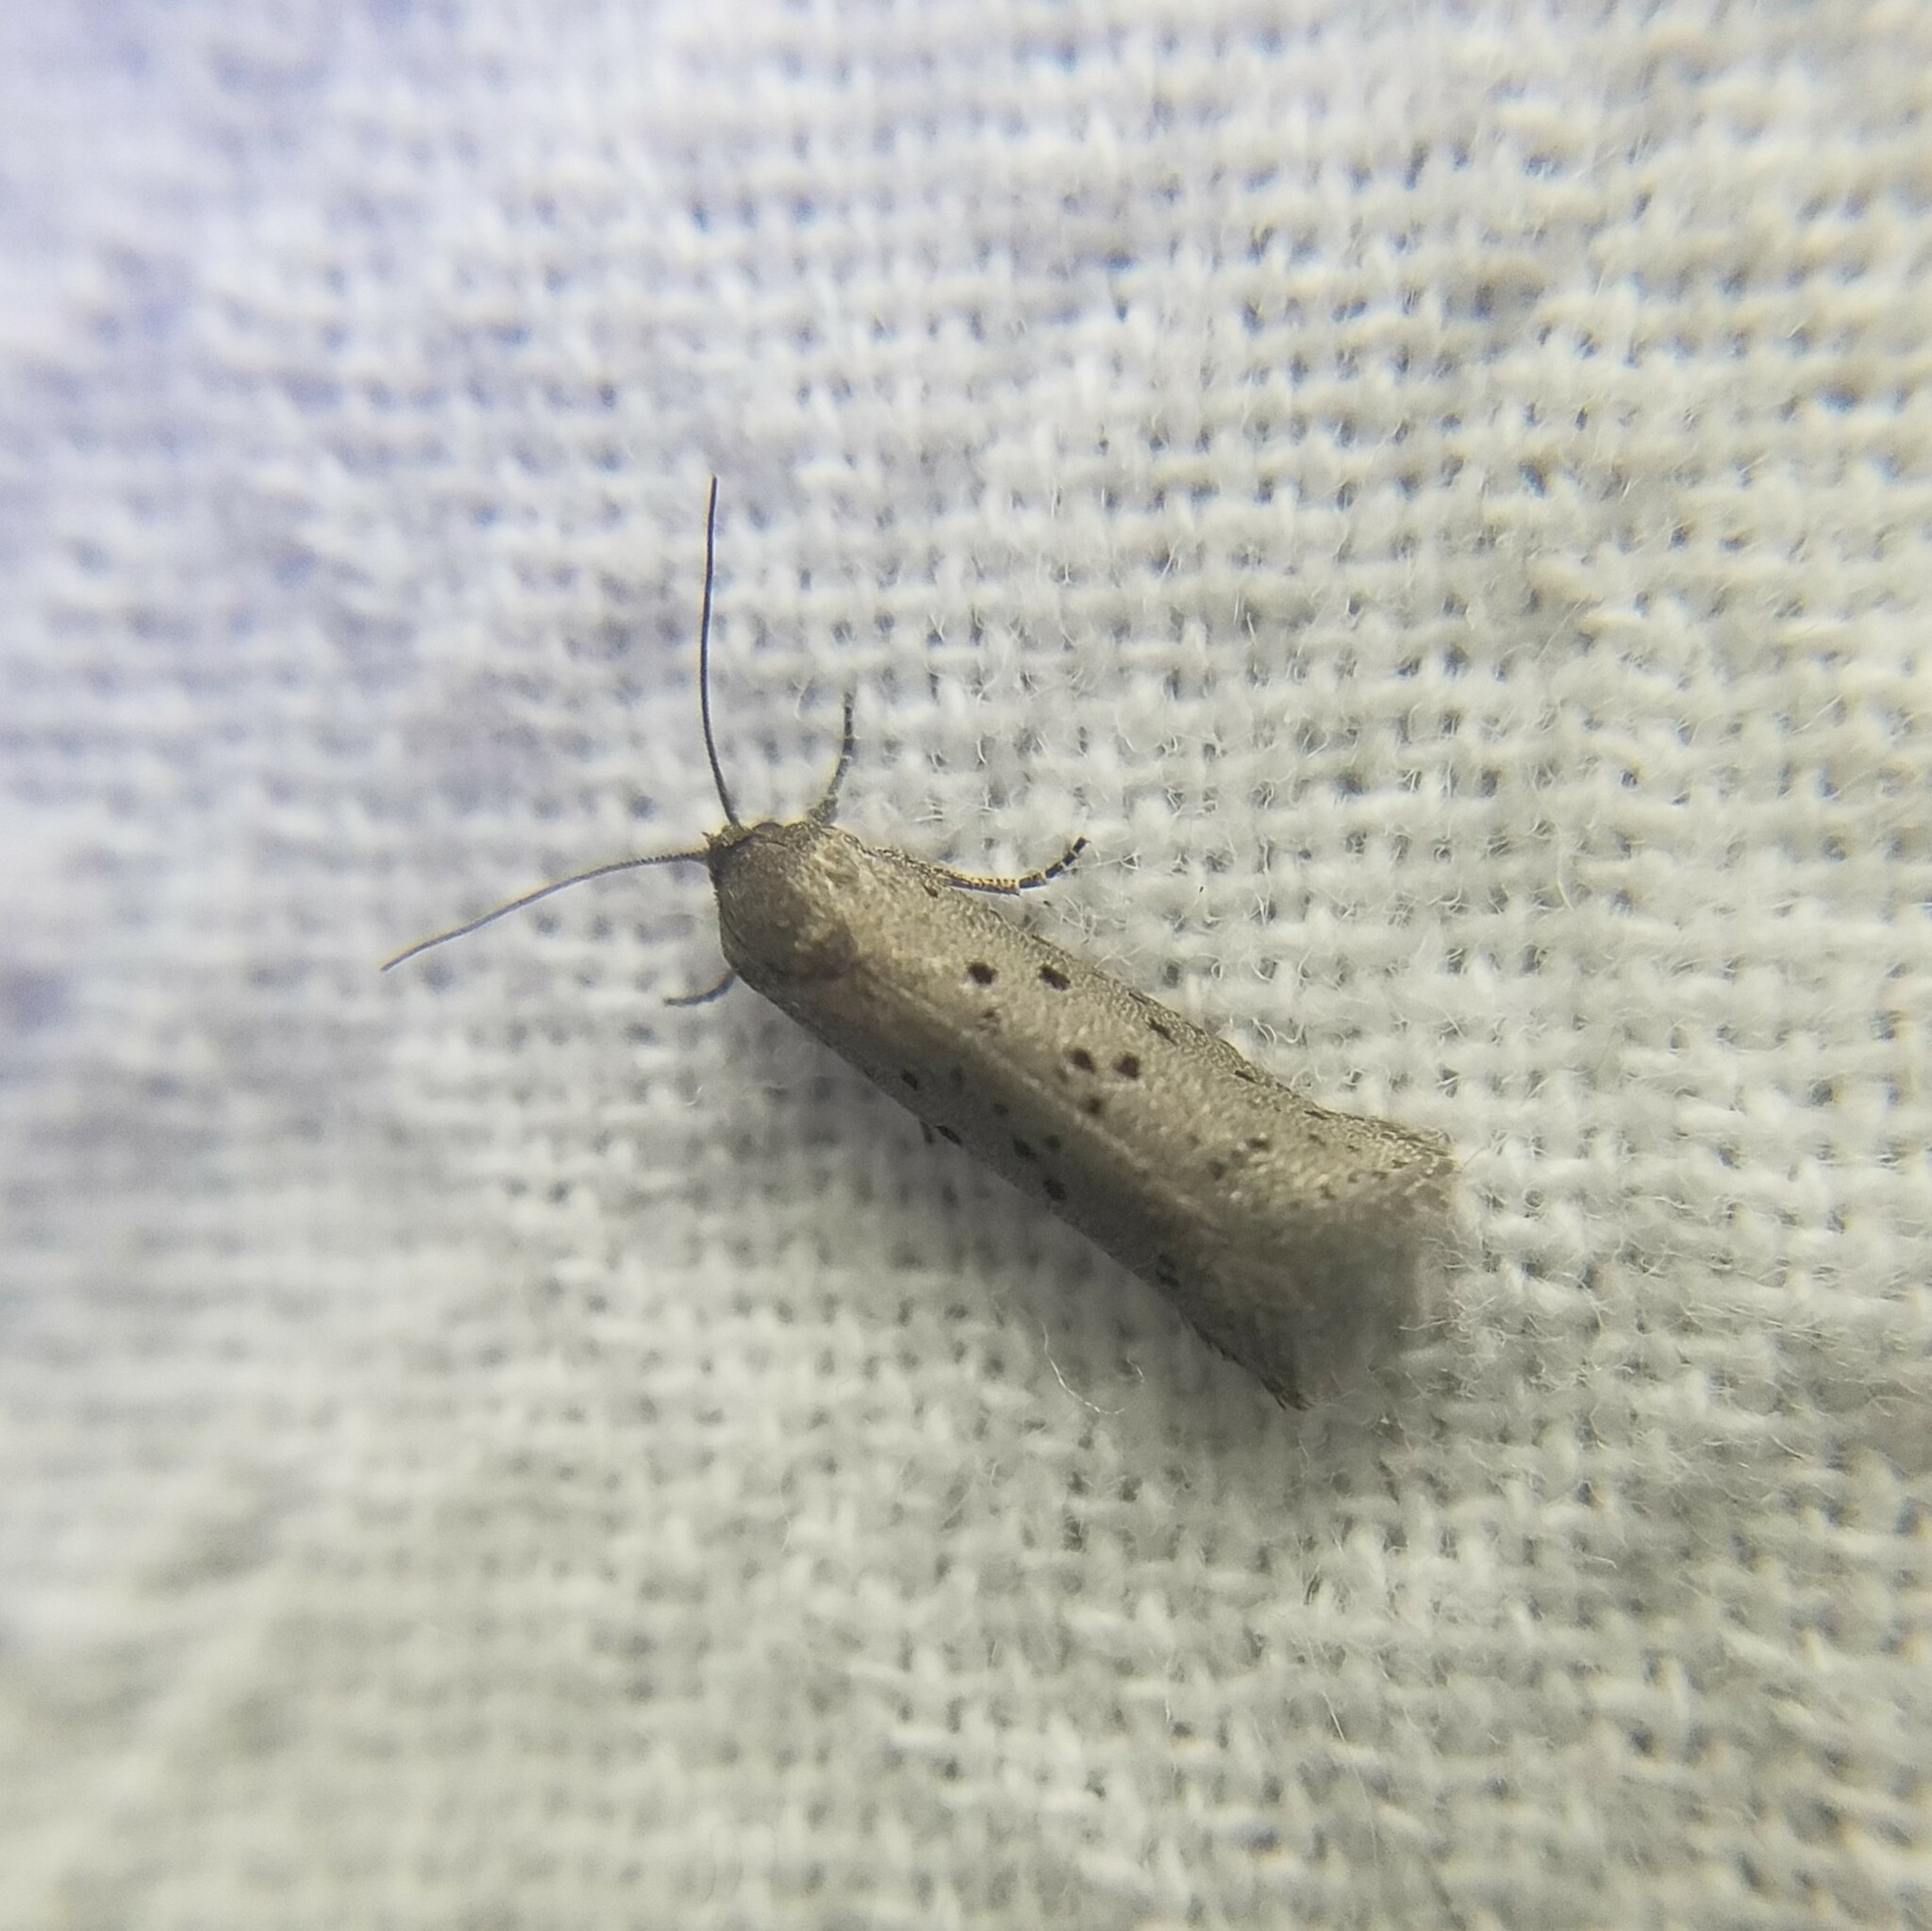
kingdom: Animalia
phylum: Arthropoda
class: Insecta
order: Lepidoptera
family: Galacticidae
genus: Homadaula
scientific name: Homadaula anisocentra
